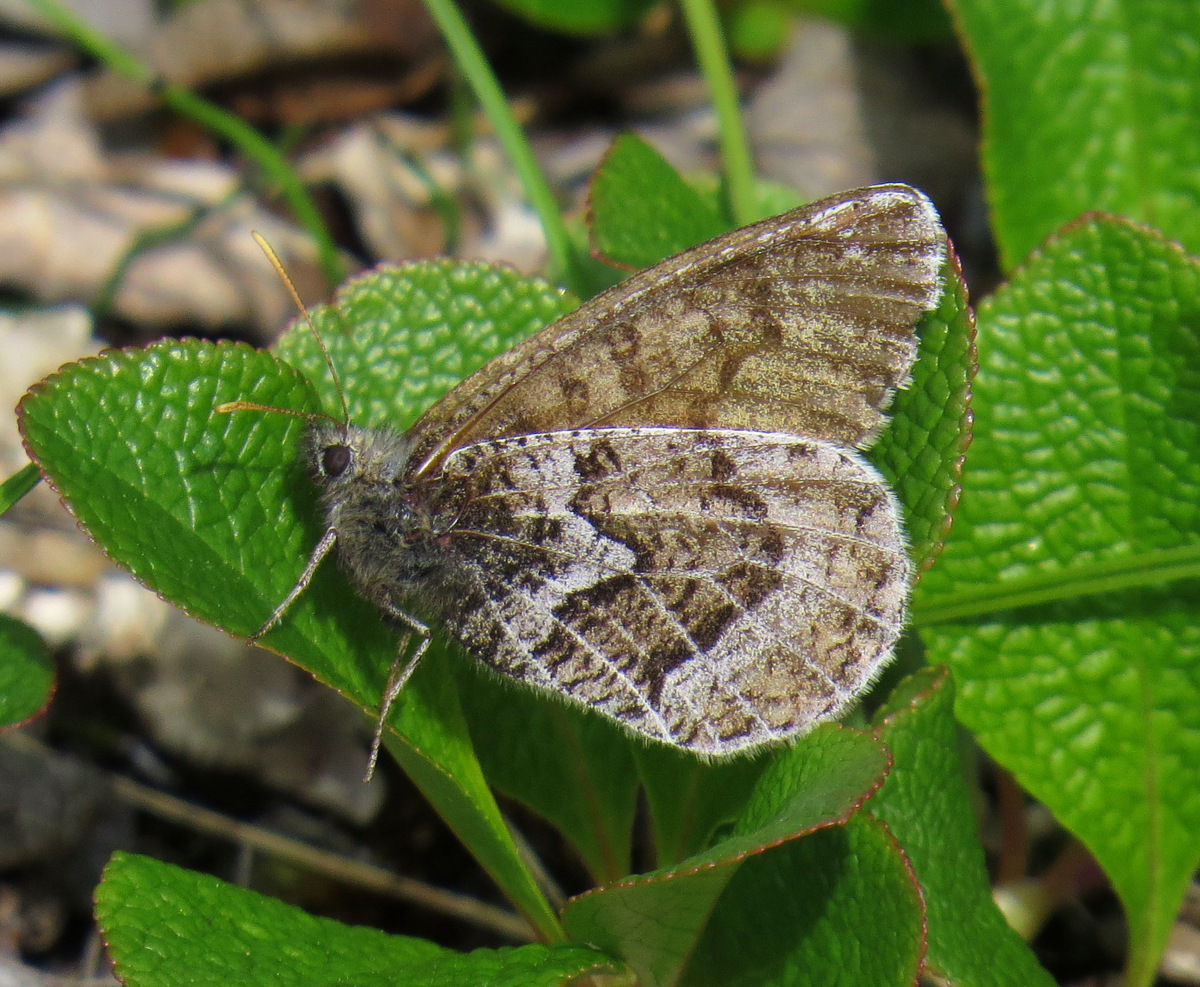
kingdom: Animalia
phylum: Arthropoda
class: Insecta
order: Lepidoptera
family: Nymphalidae
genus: Oeneis
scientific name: Oeneis bore
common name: Arctic grayling
